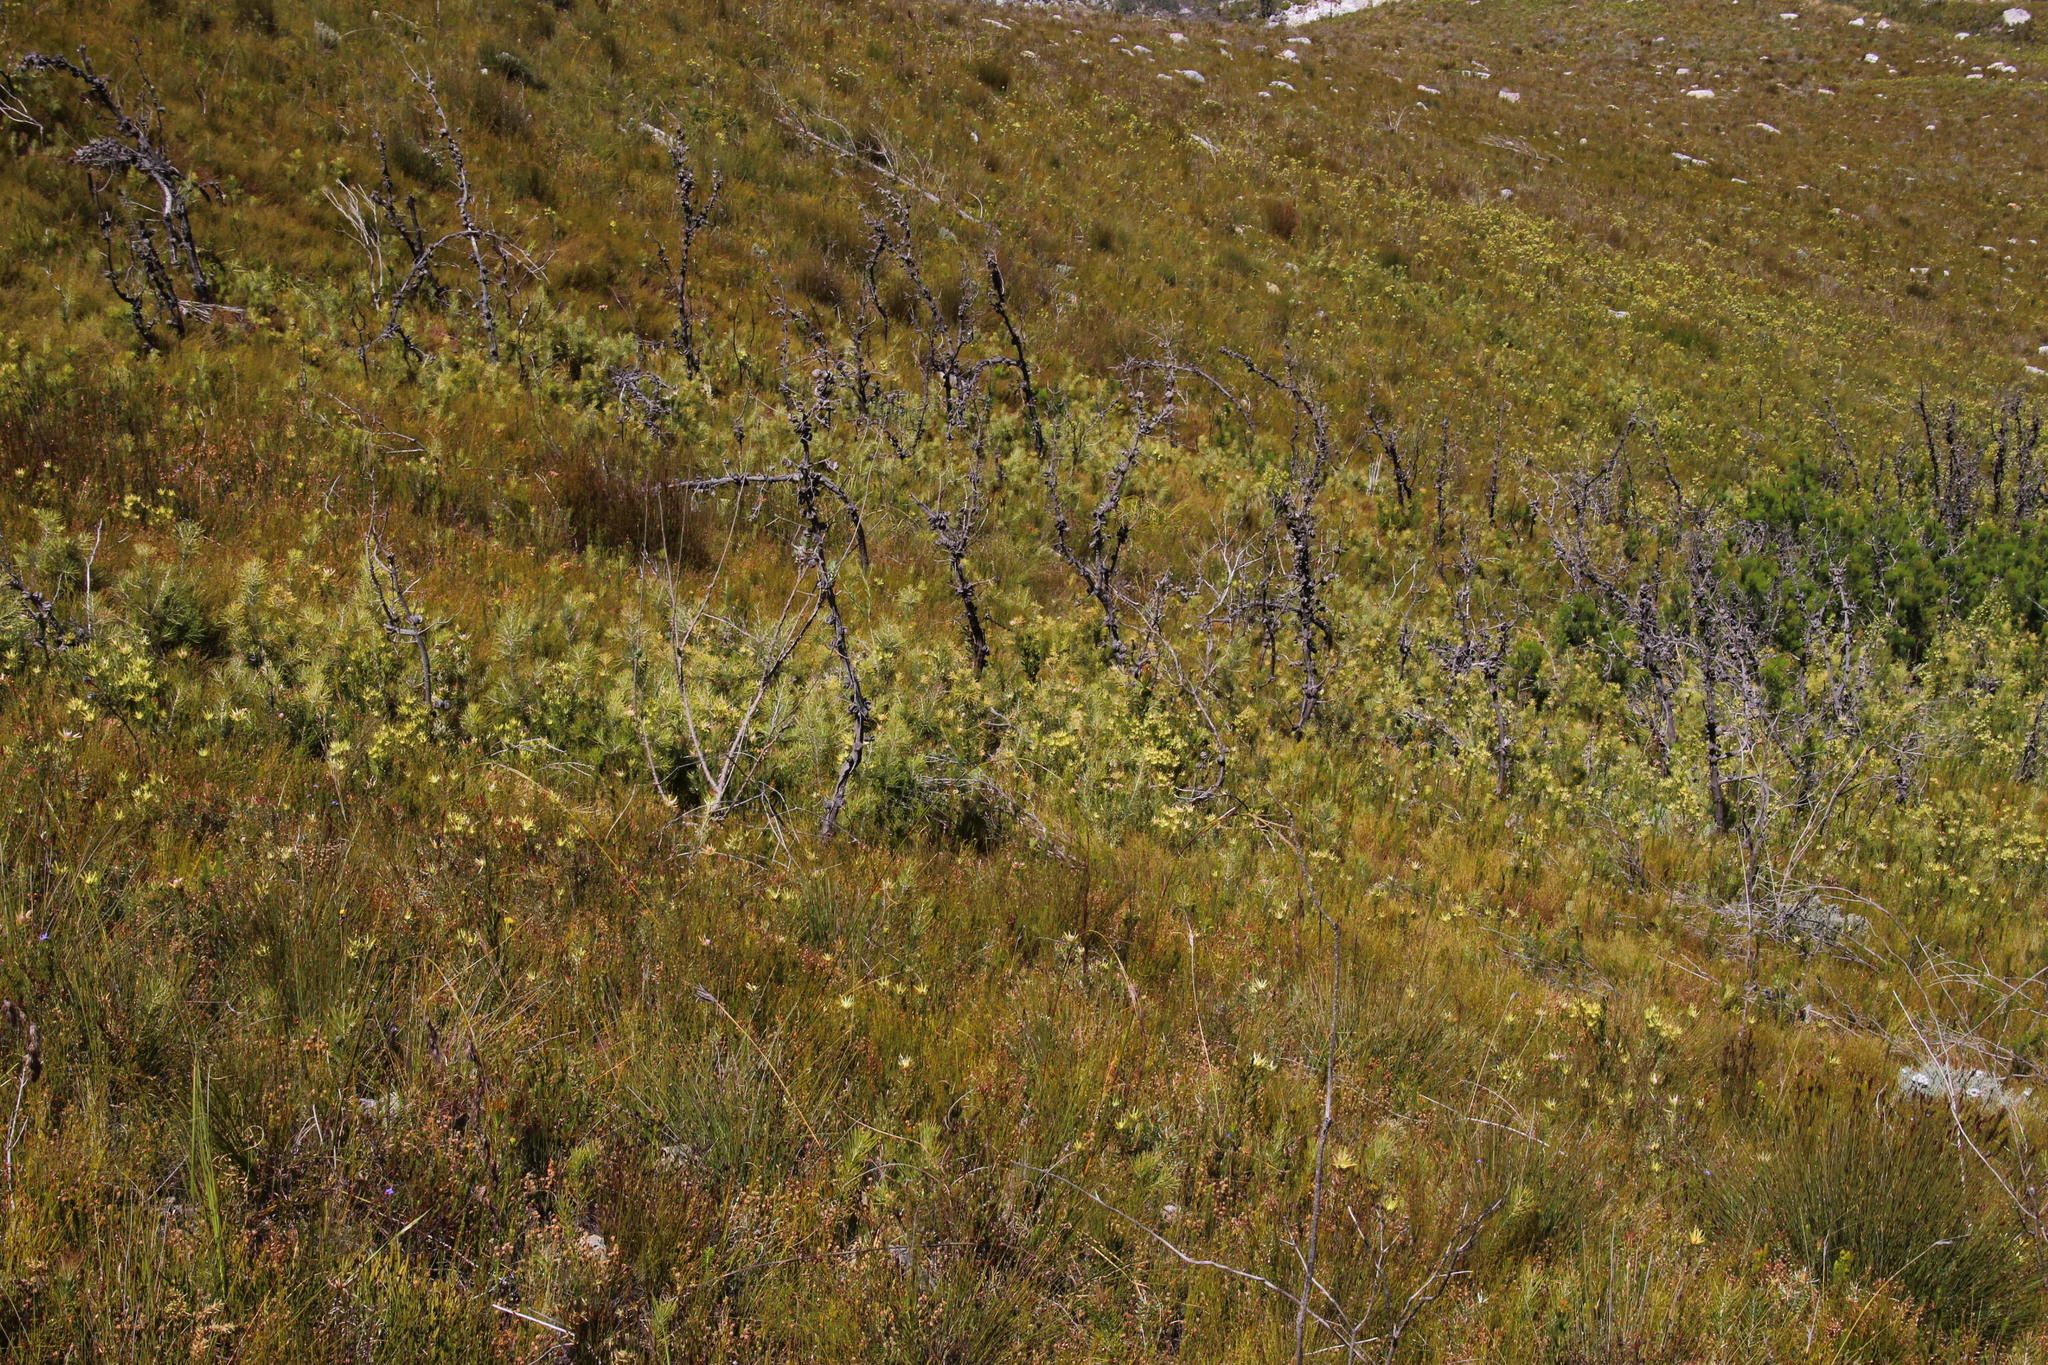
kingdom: Plantae
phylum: Tracheophyta
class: Magnoliopsida
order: Proteales
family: Proteaceae
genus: Hakea
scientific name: Hakea gibbosa
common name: Rock hakea
